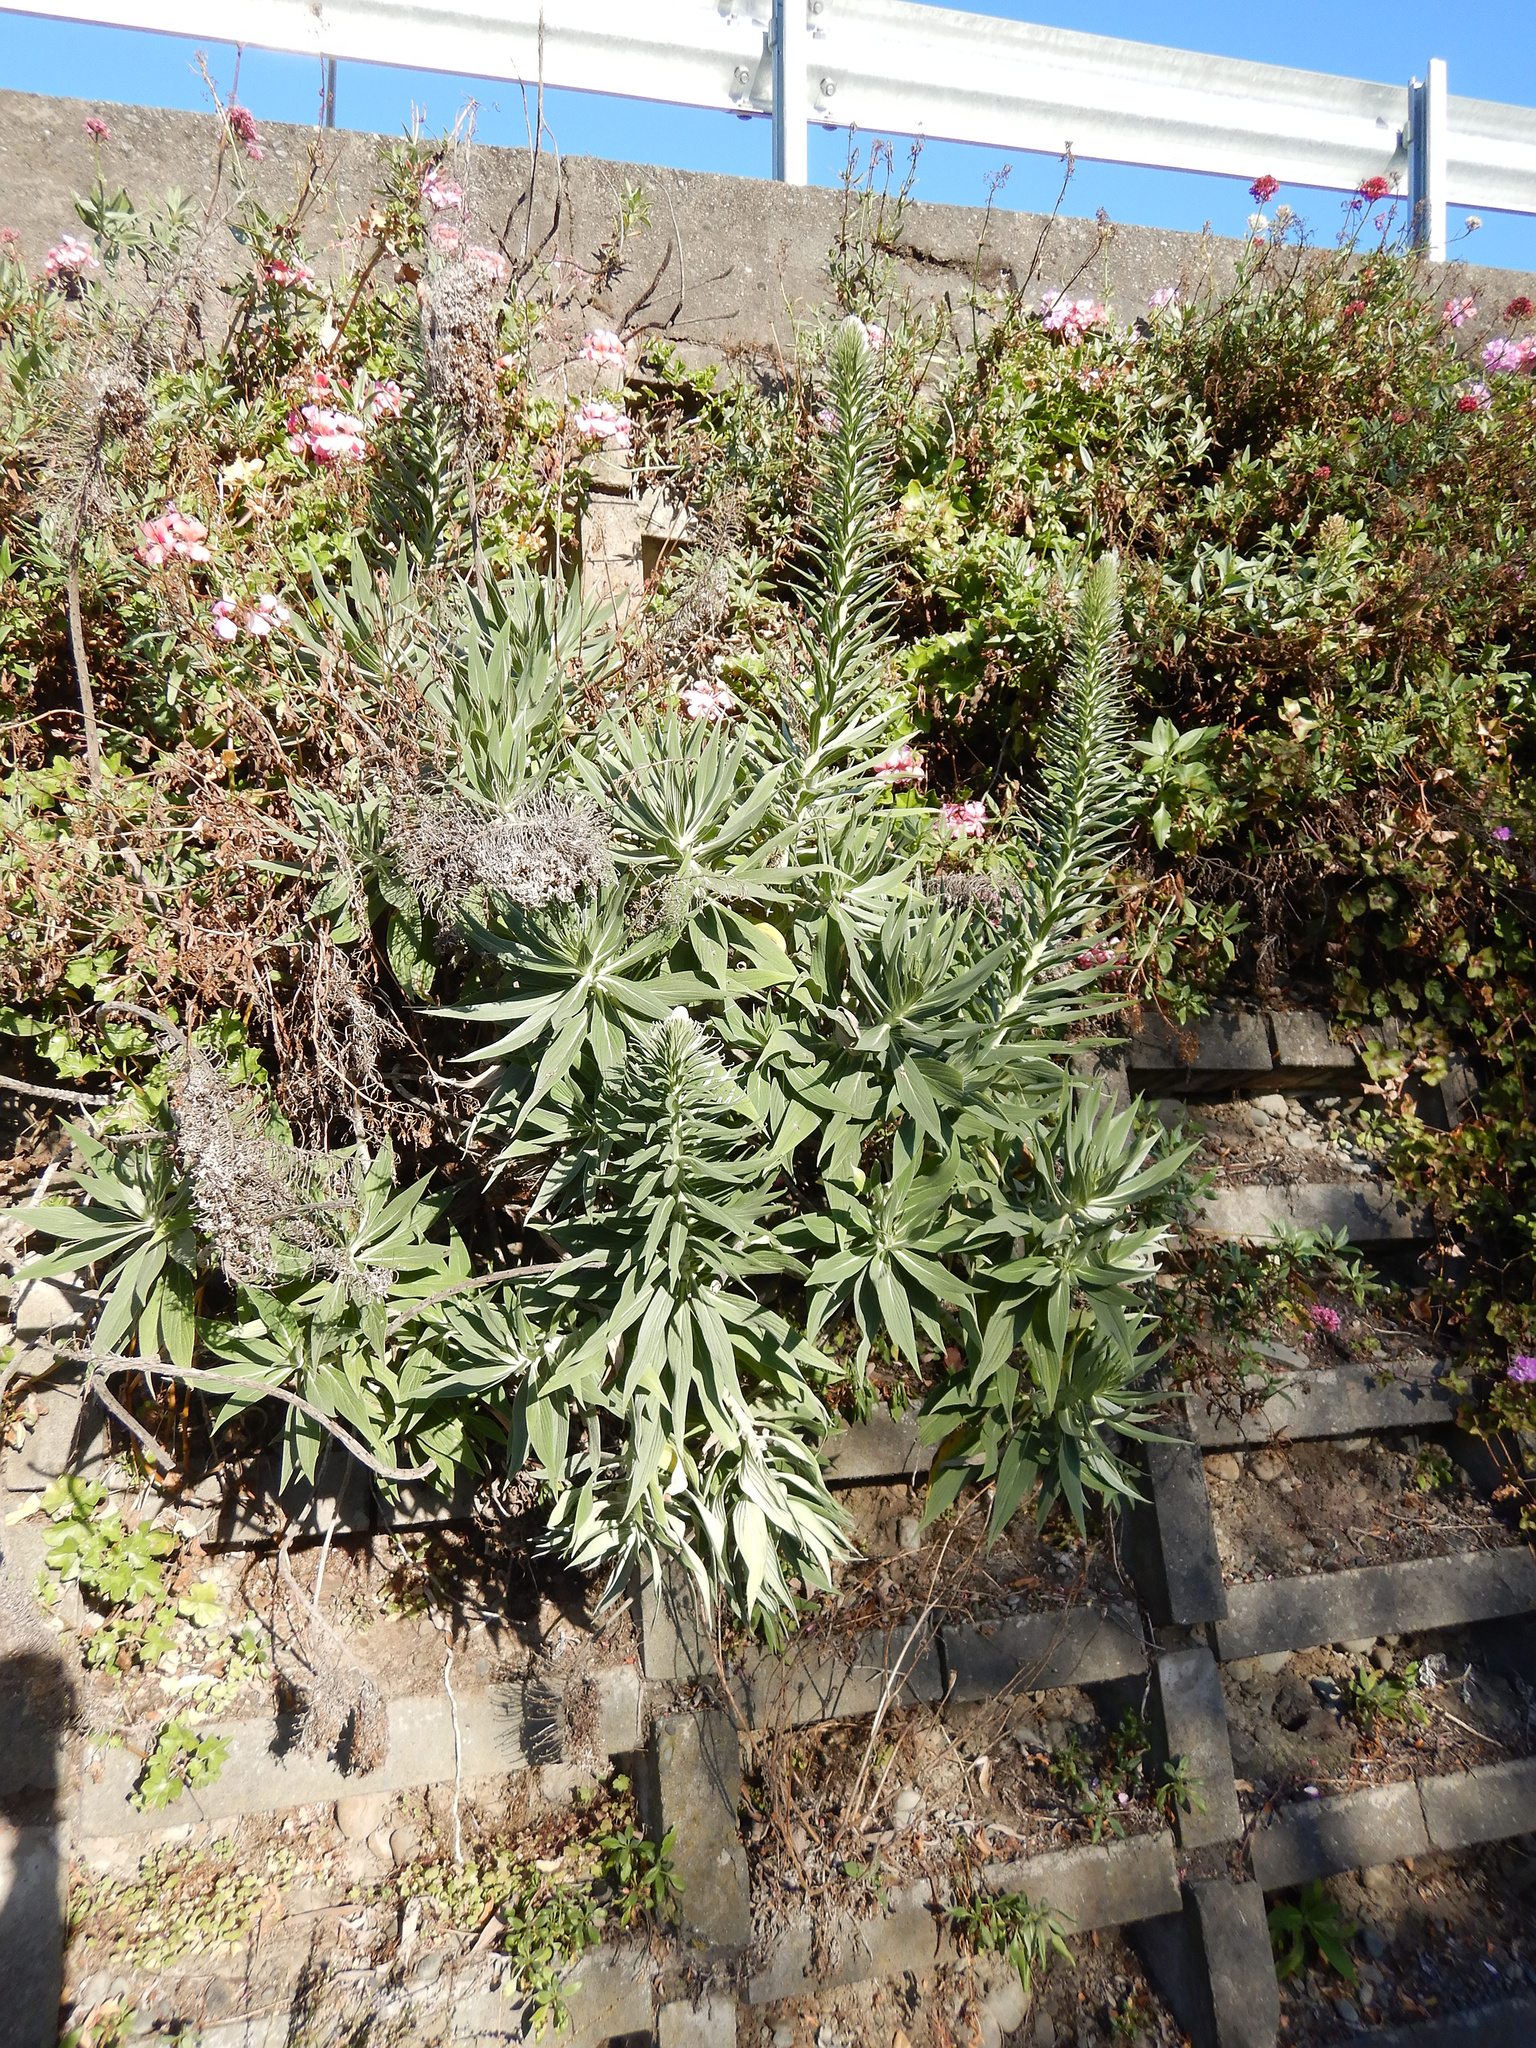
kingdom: Plantae
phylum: Tracheophyta
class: Magnoliopsida
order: Boraginales
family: Boraginaceae
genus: Echium
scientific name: Echium candicans
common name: Pride of madeira
